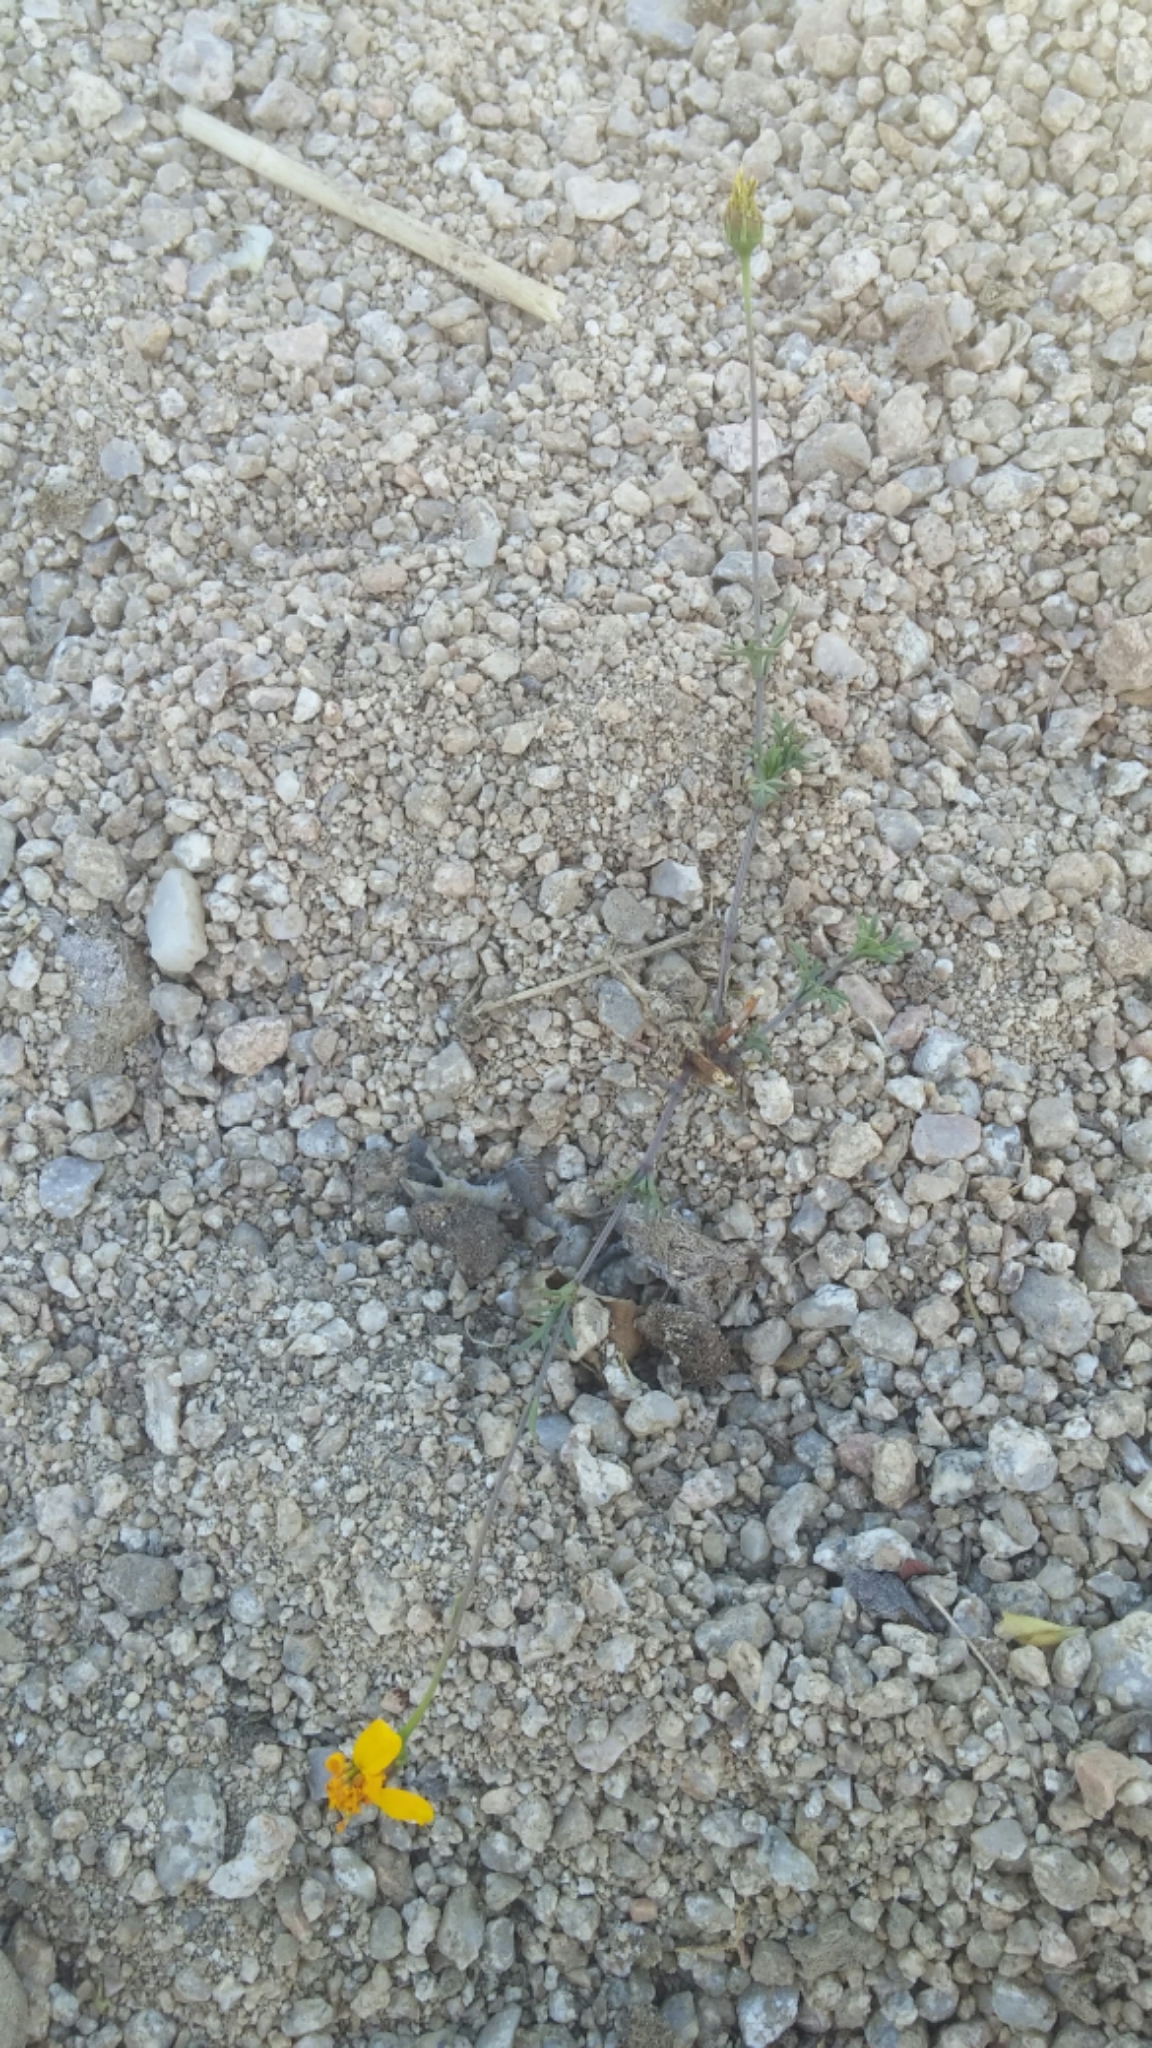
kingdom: Plantae
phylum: Tracheophyta
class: Magnoliopsida
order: Asterales
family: Asteraceae
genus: Bidens
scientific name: Bidens xanti
